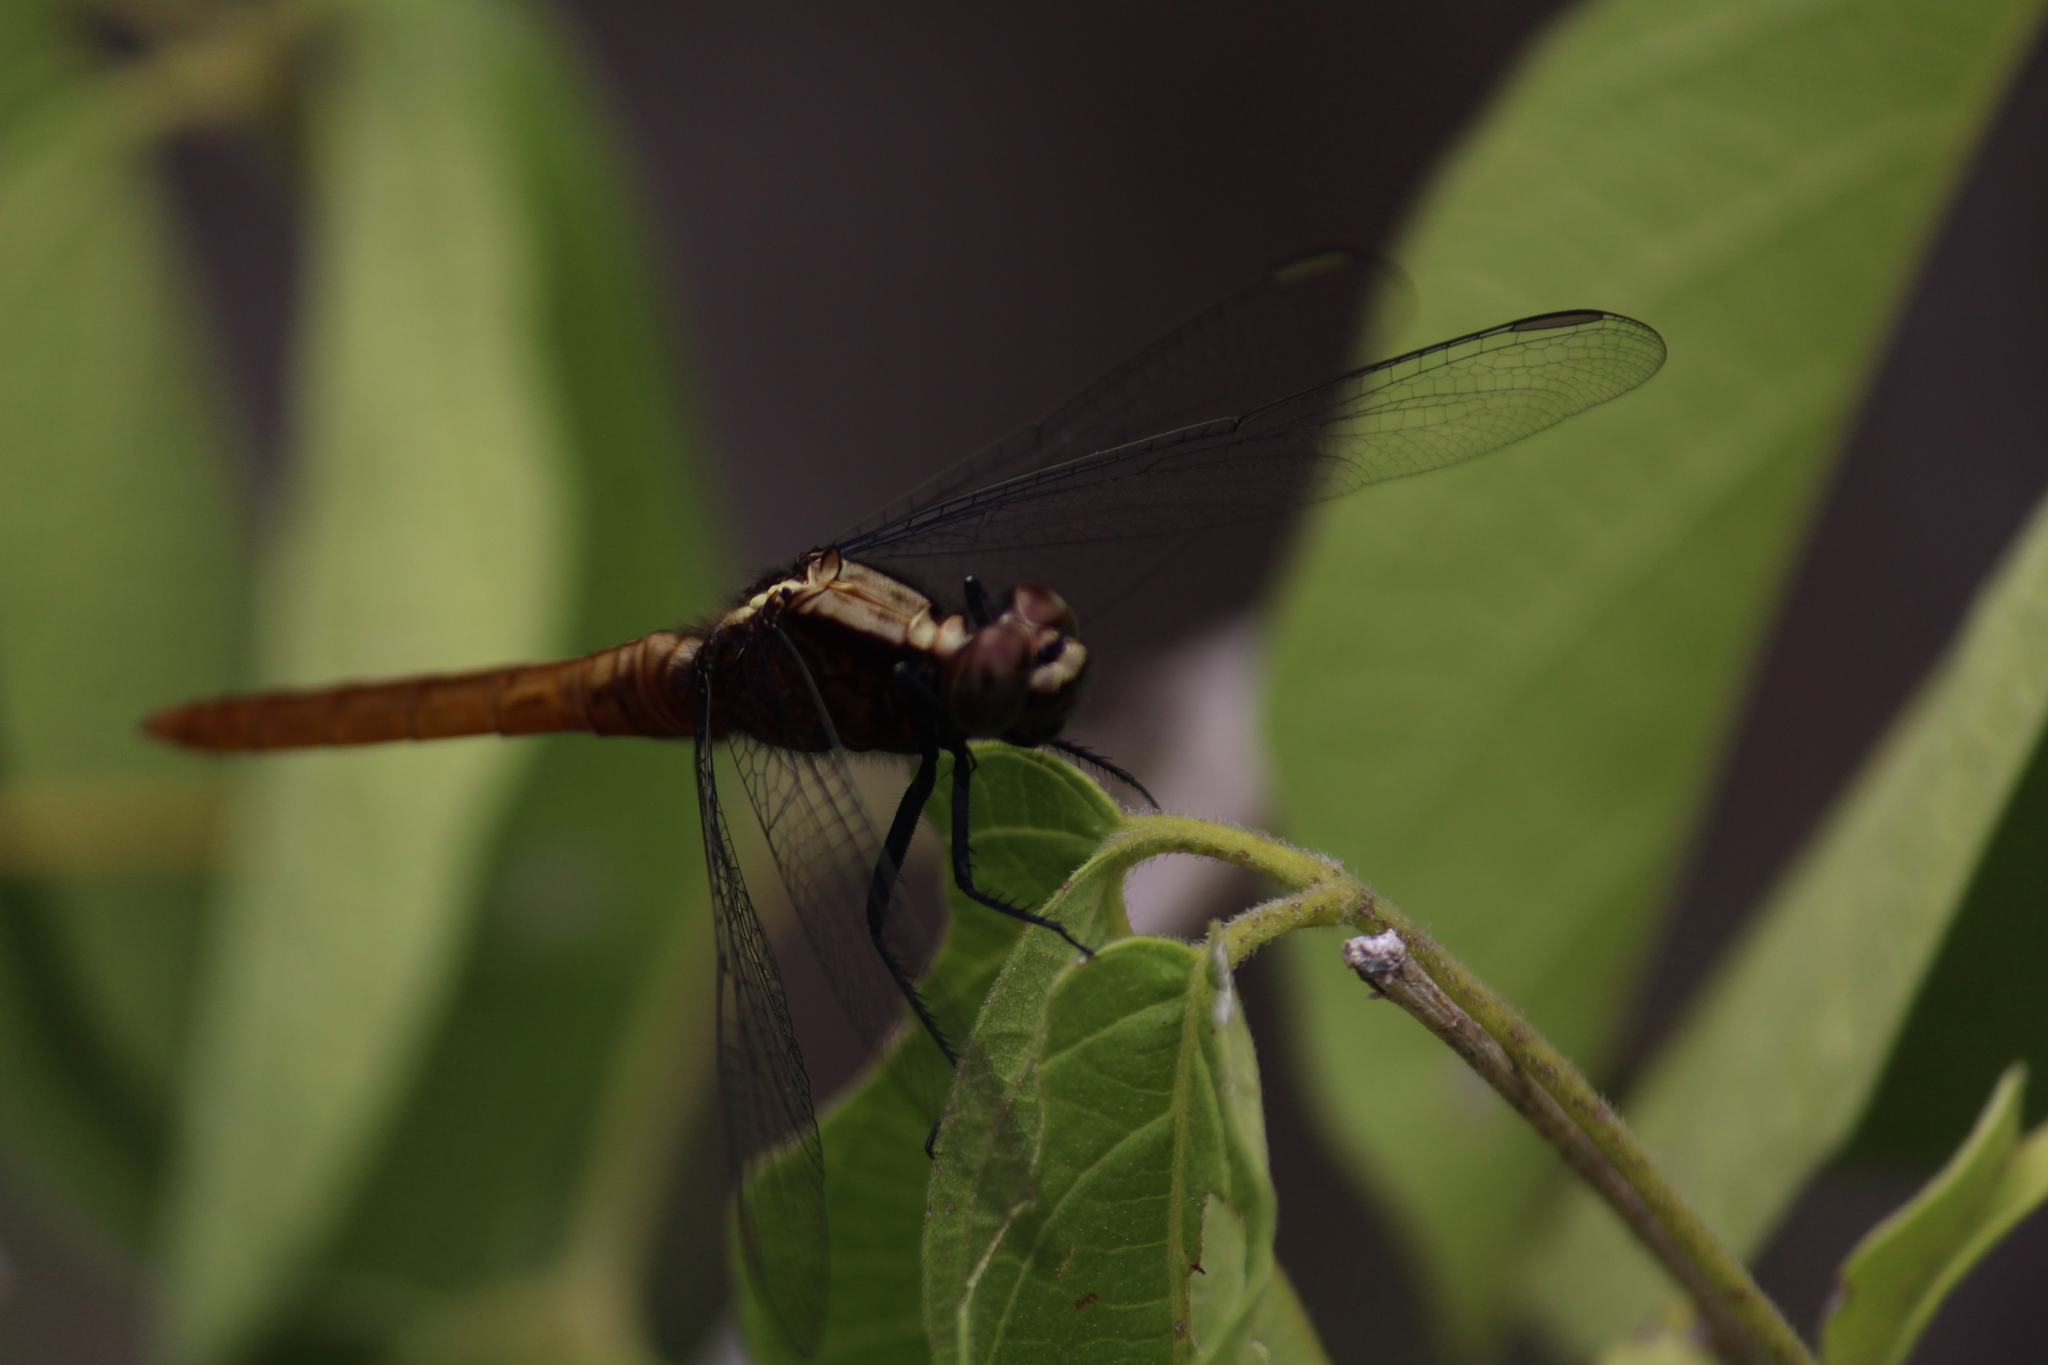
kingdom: Animalia
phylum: Arthropoda
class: Insecta
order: Odonata
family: Libellulidae
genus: Erythemis
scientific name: Erythemis peruviana
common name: Flame-tailed pondhawk
